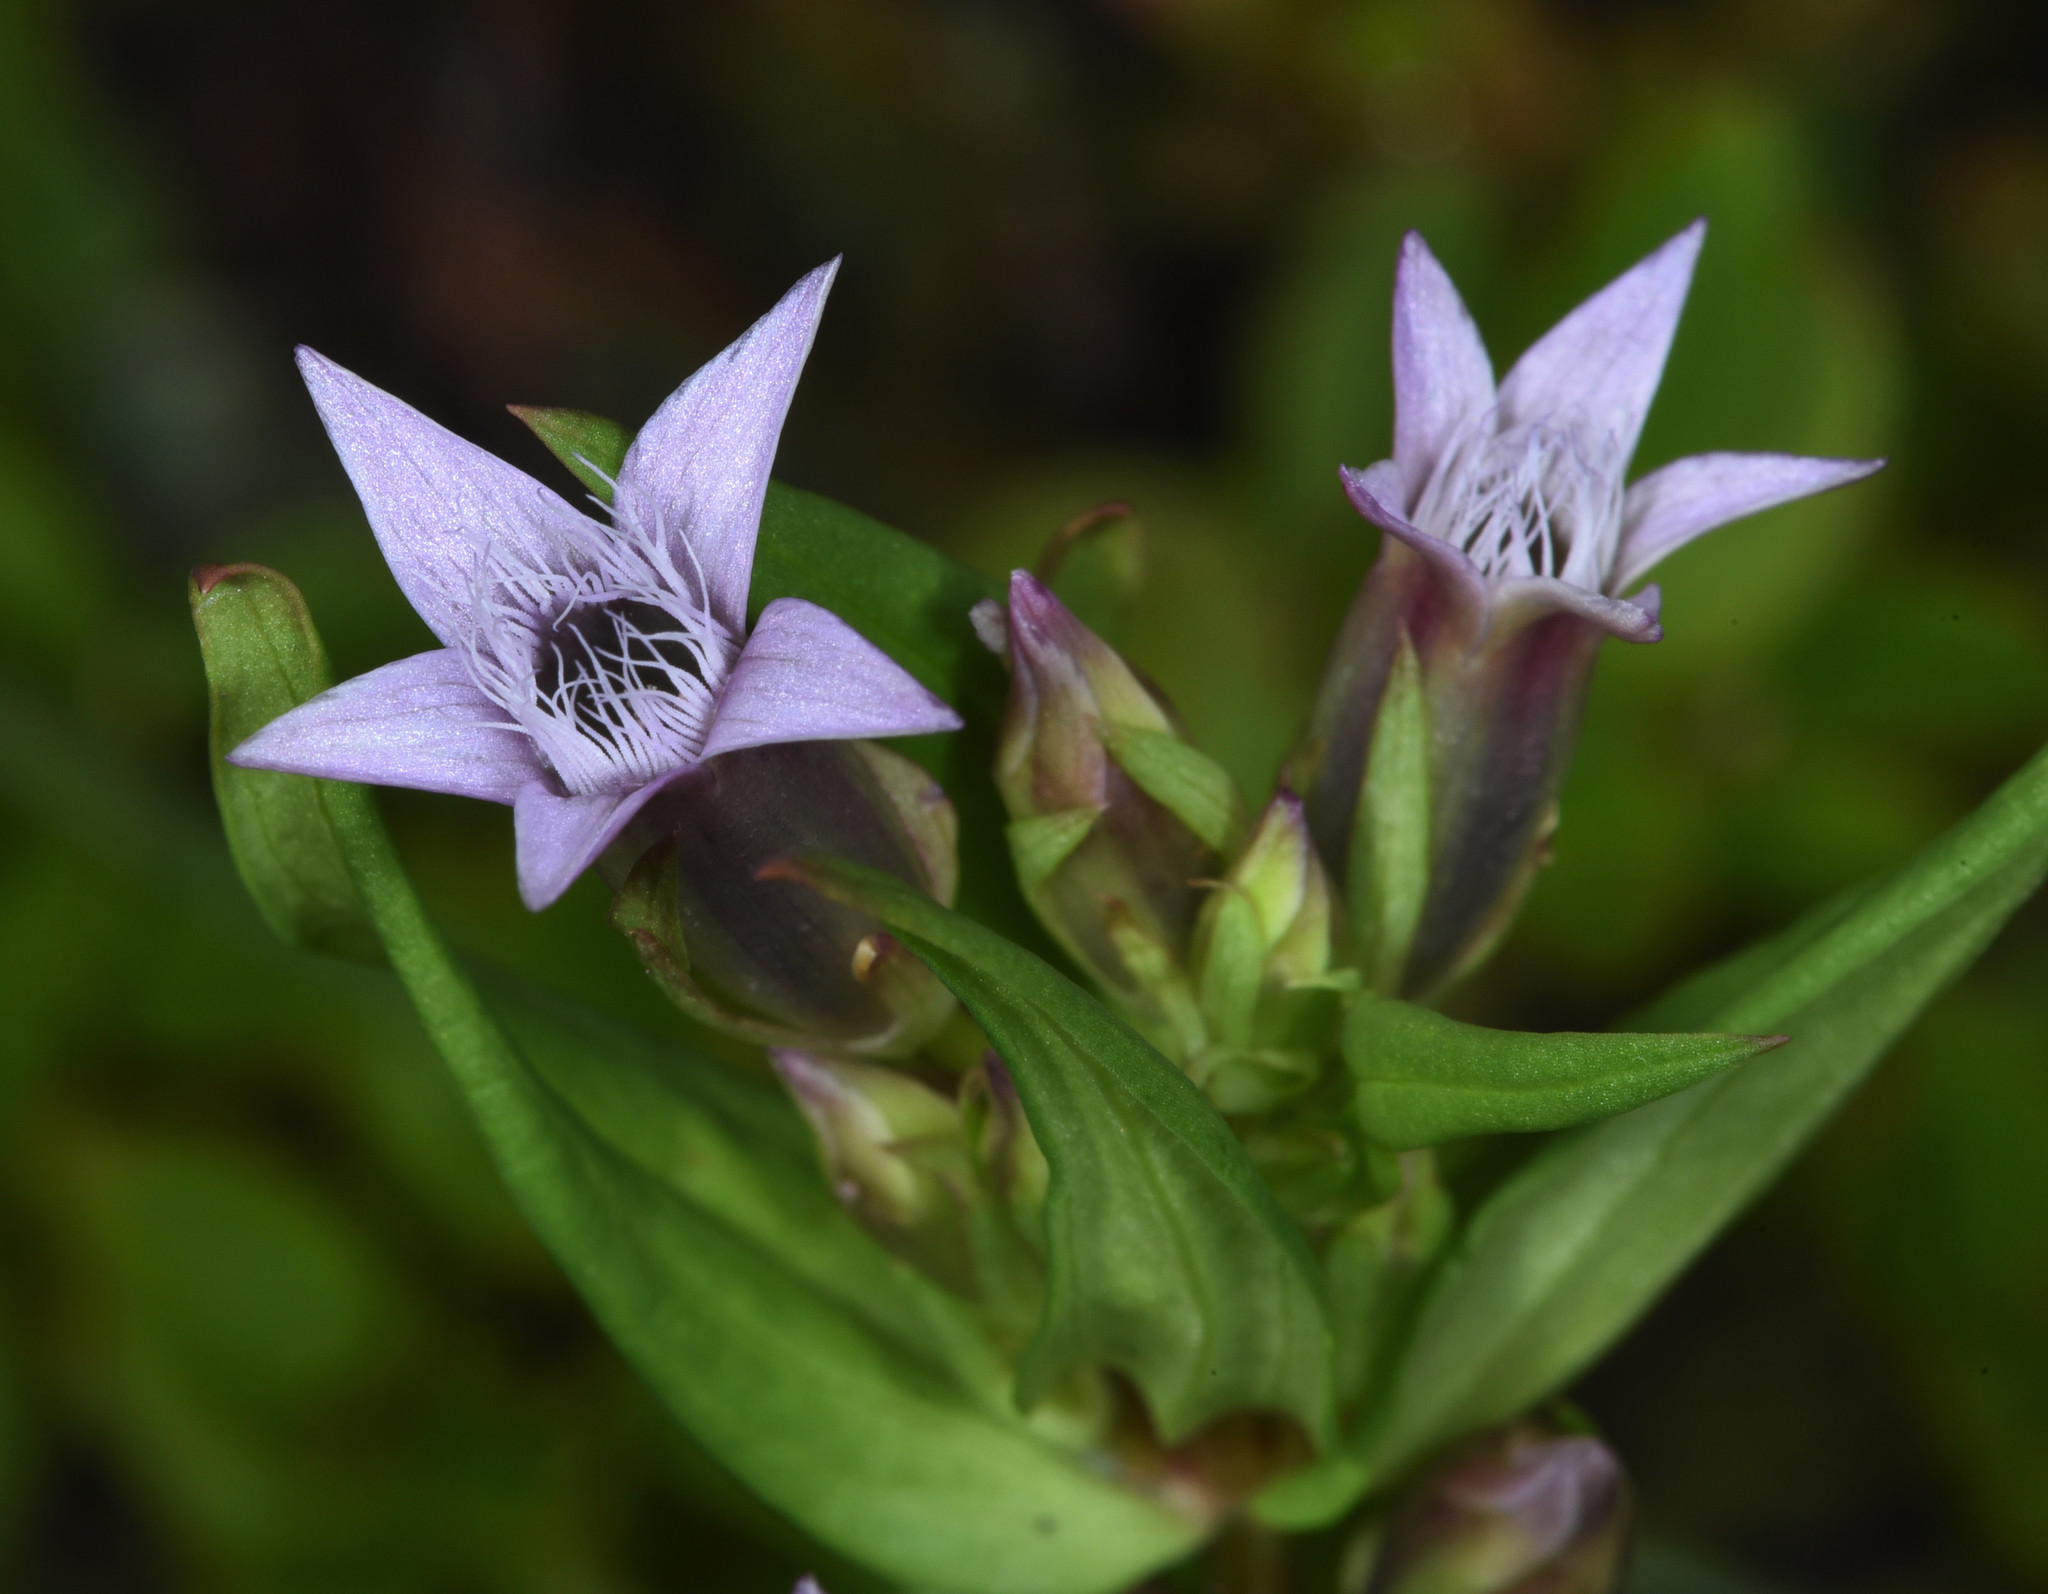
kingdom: Plantae
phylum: Tracheophyta
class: Magnoliopsida
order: Gentianales
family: Gentianaceae
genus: Gentianella
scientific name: Gentianella amarella
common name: Autumn gentian
